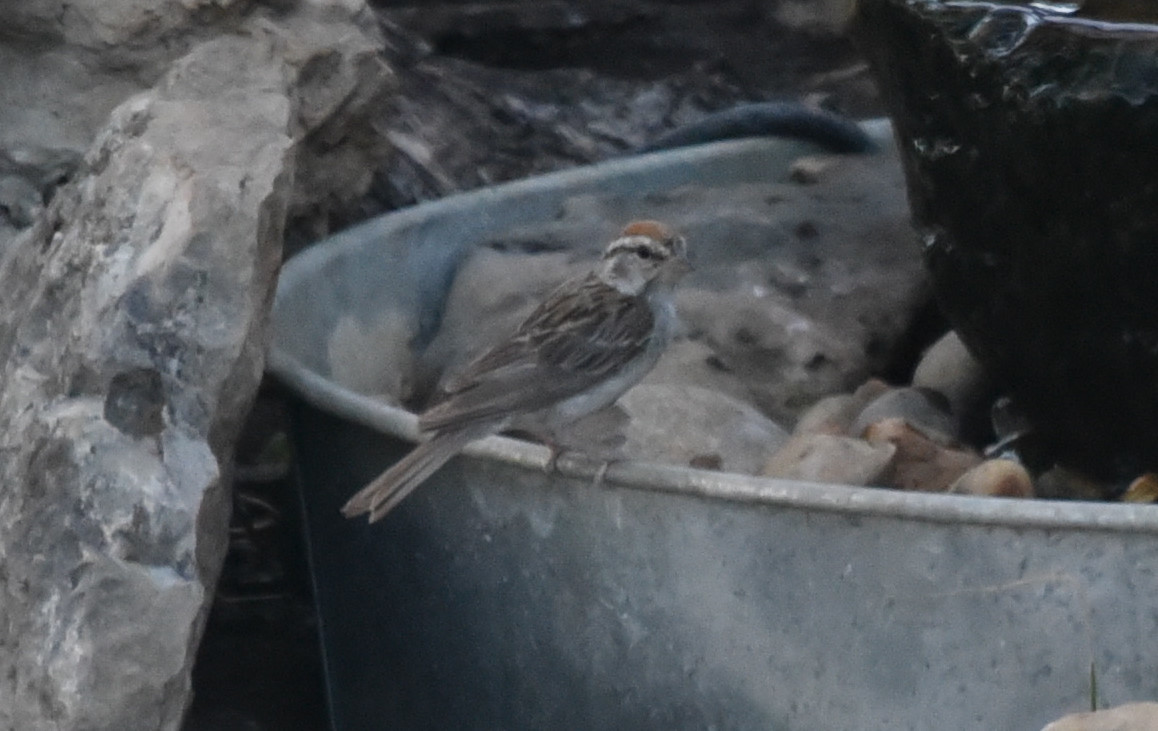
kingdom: Animalia
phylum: Chordata
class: Aves
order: Passeriformes
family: Passerellidae
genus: Spizella
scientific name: Spizella passerina
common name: Chipping sparrow
